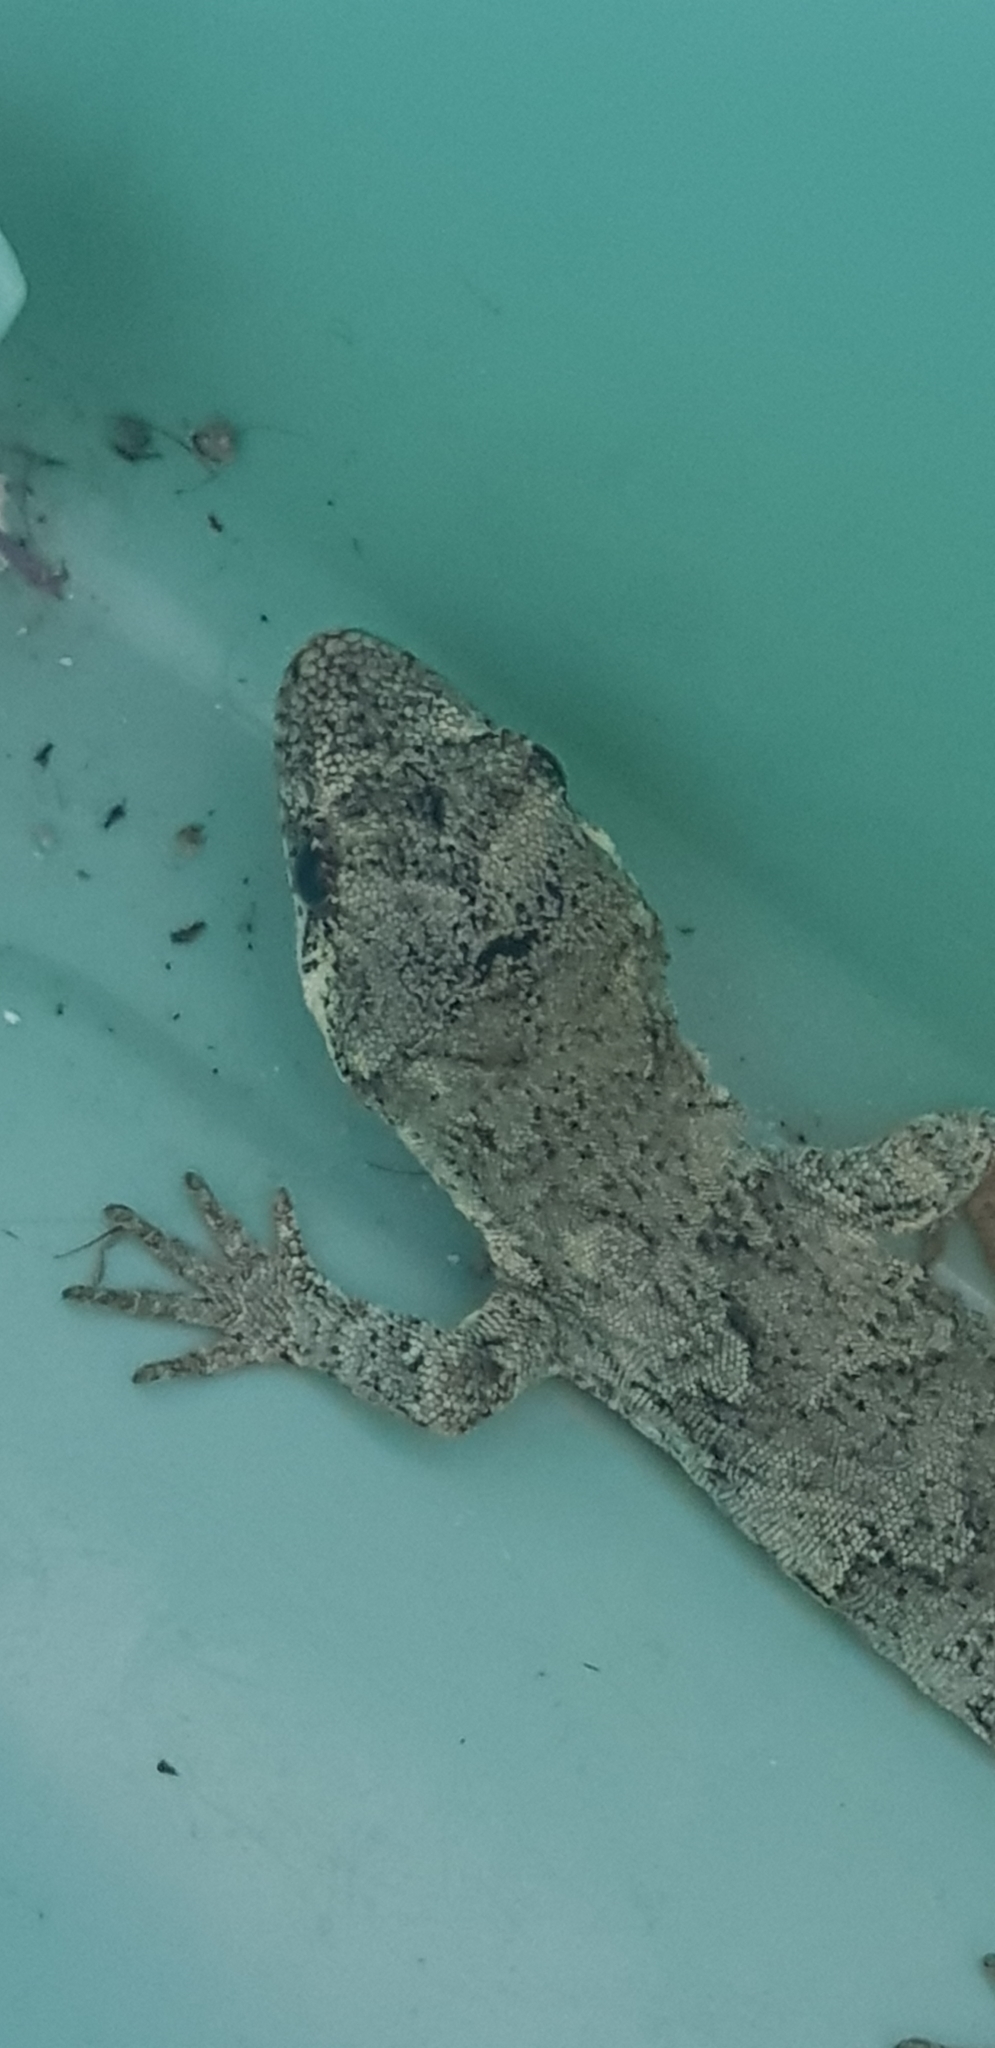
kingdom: Animalia
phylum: Chordata
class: Squamata
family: Diplodactylidae
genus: Mokopirirakau
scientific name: Mokopirirakau granulatus
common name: Forest gecko
